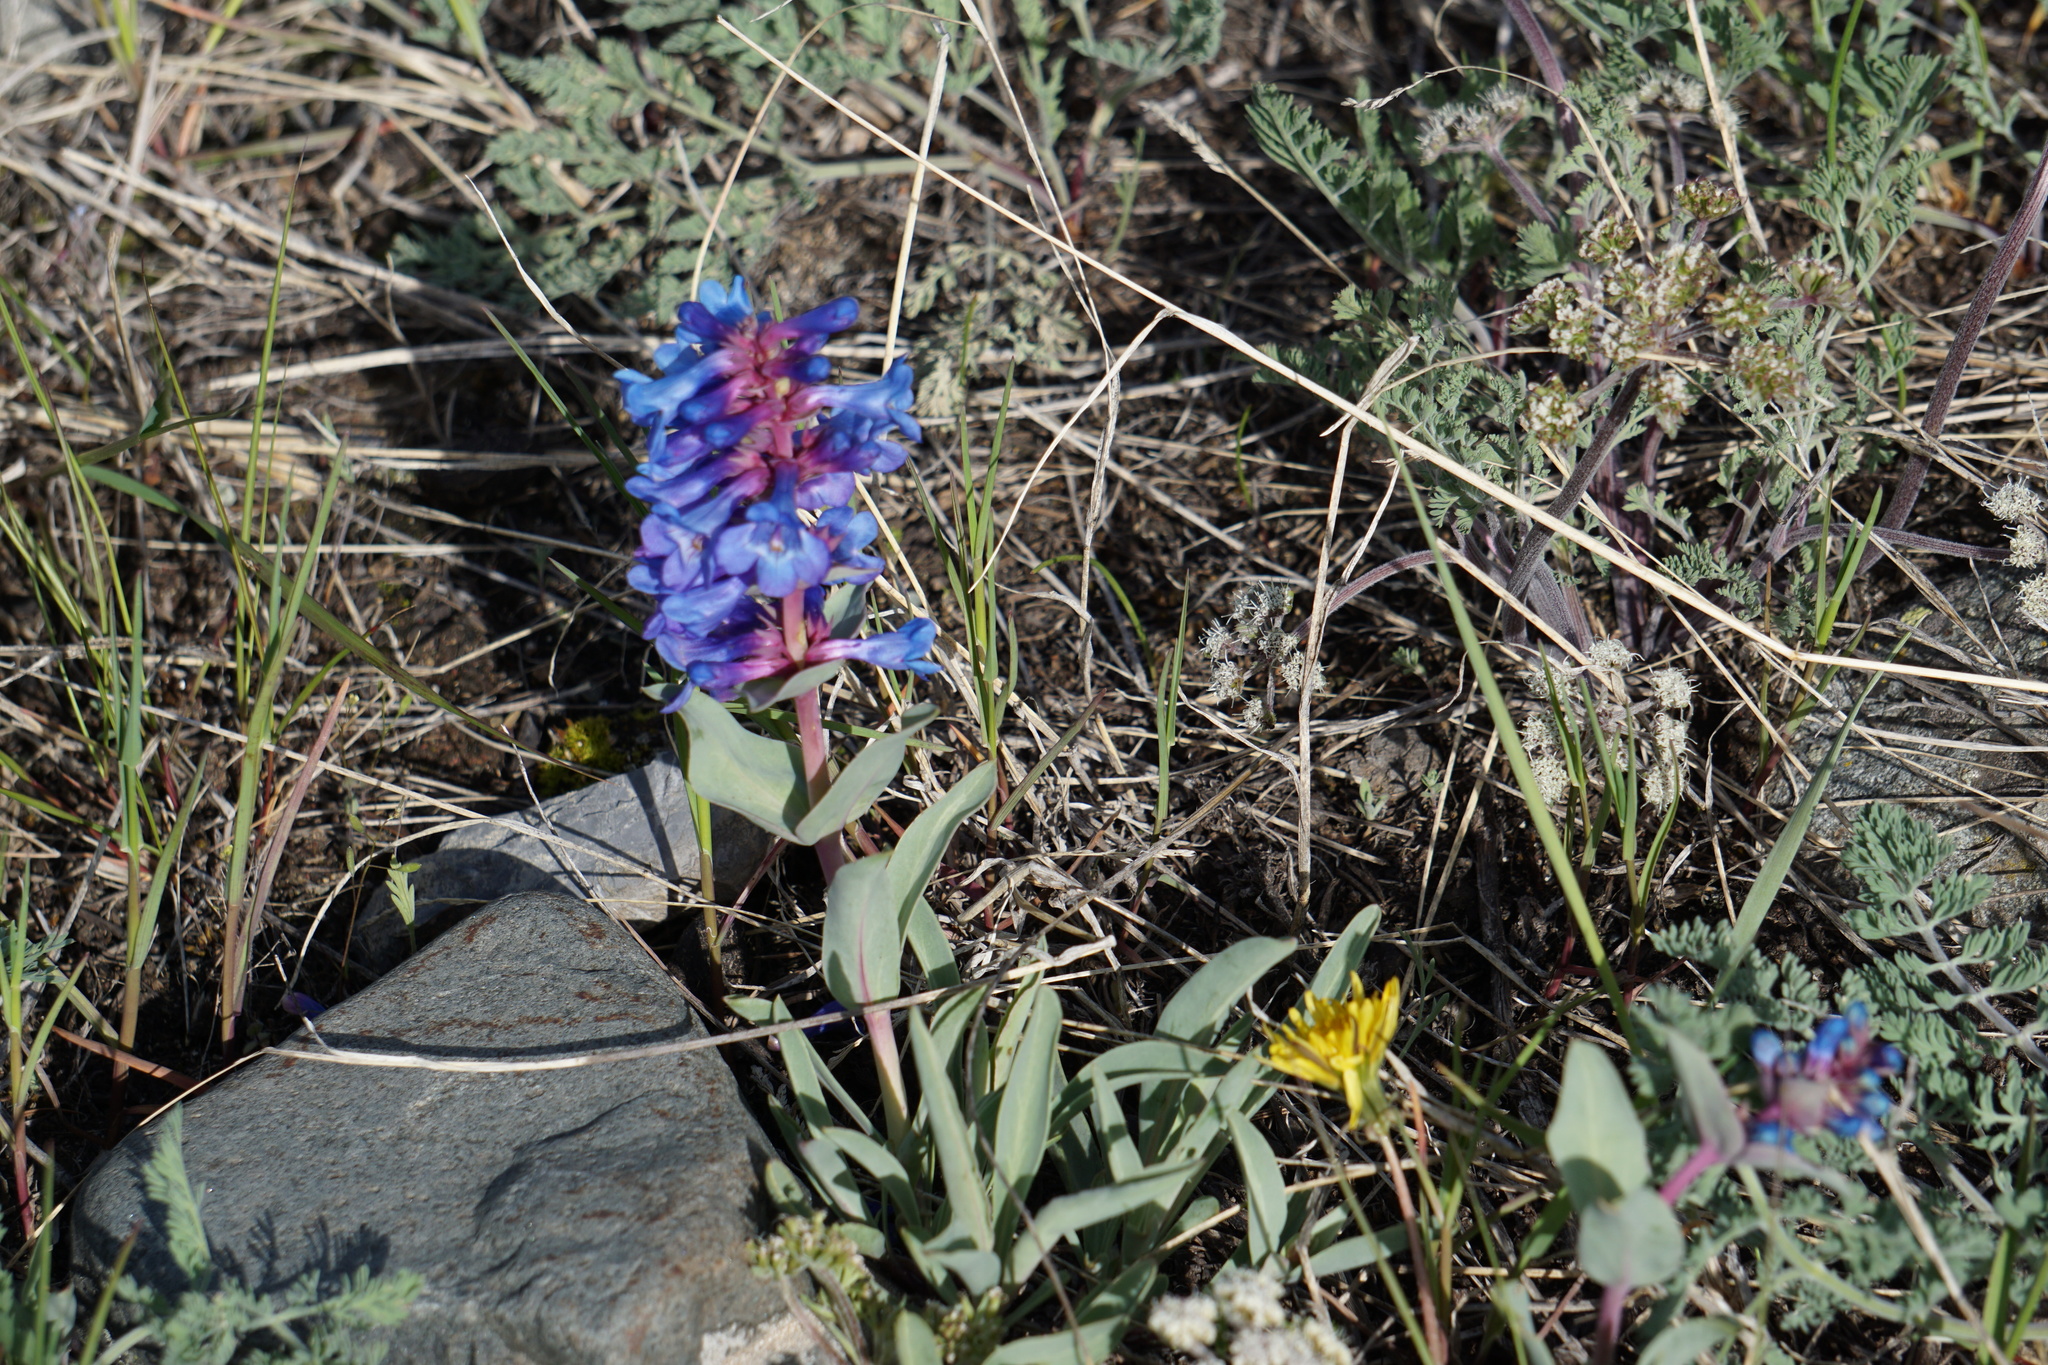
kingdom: Plantae
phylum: Tracheophyta
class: Magnoliopsida
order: Lamiales
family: Plantaginaceae
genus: Penstemon
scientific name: Penstemon nitidus
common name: Shining penstemon
